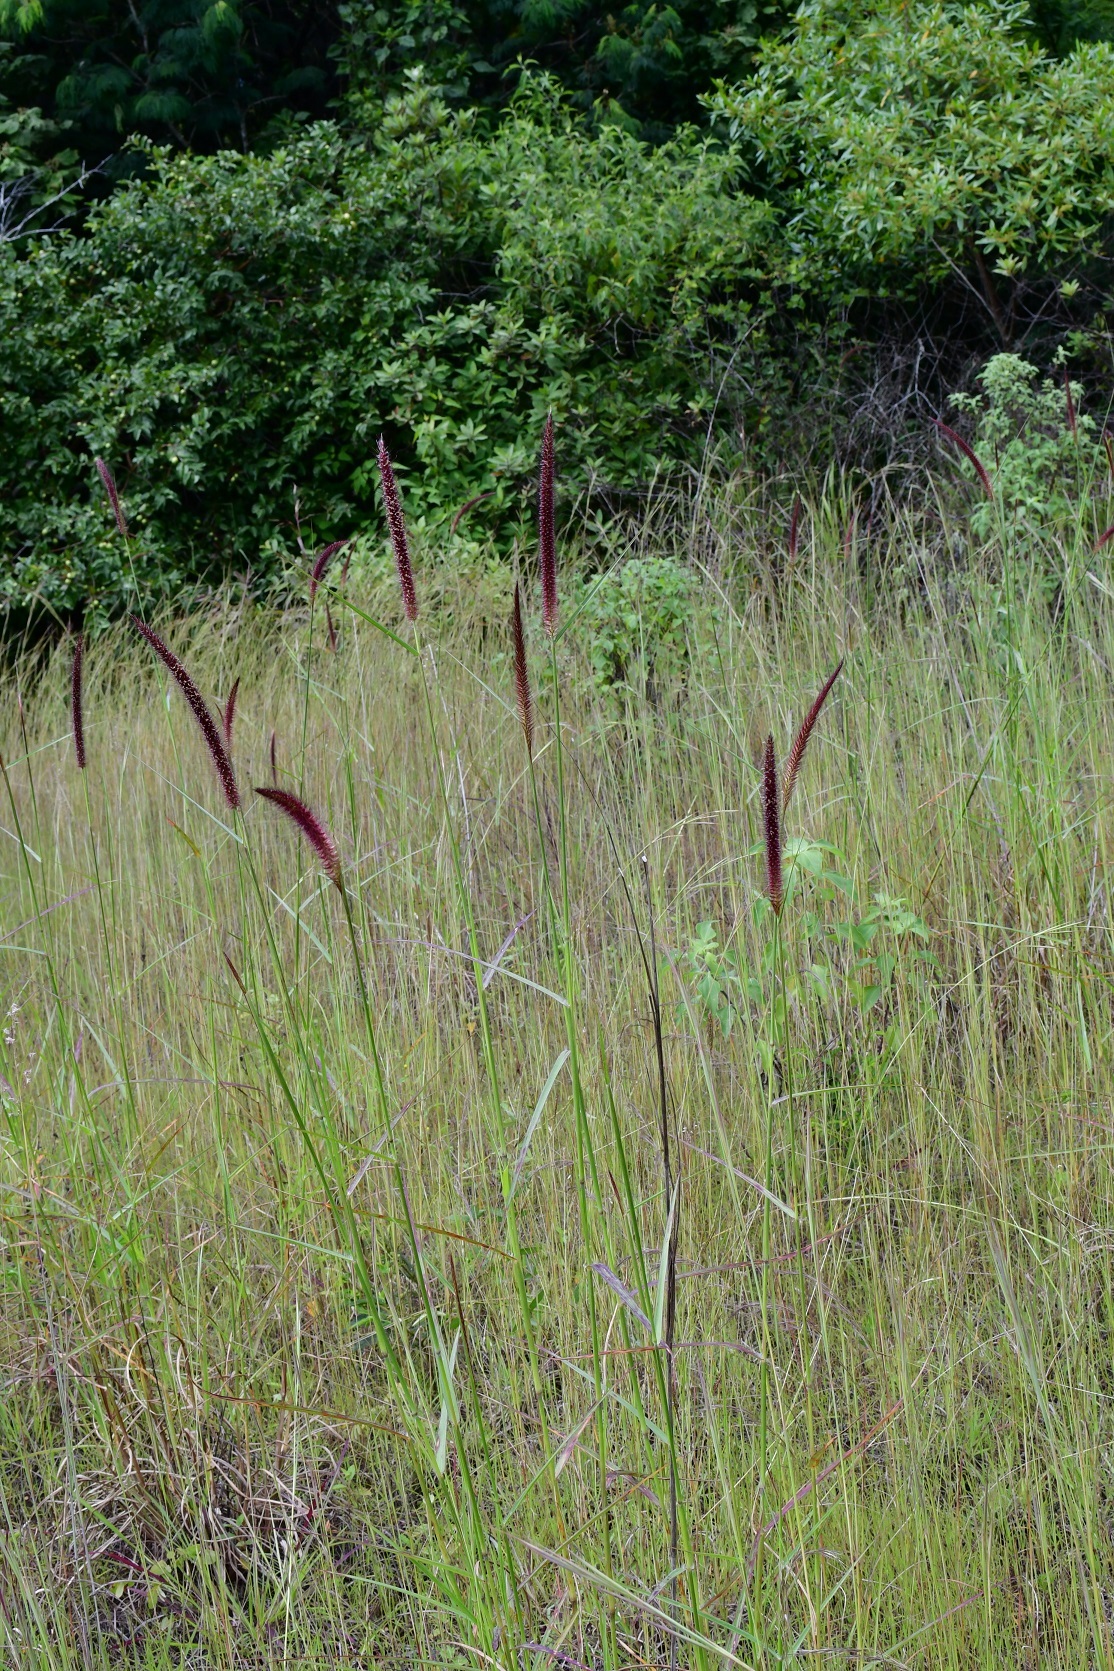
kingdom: Plantae
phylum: Tracheophyta
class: Liliopsida
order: Poales
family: Poaceae
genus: Cenchrus
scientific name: Cenchrus setosus
